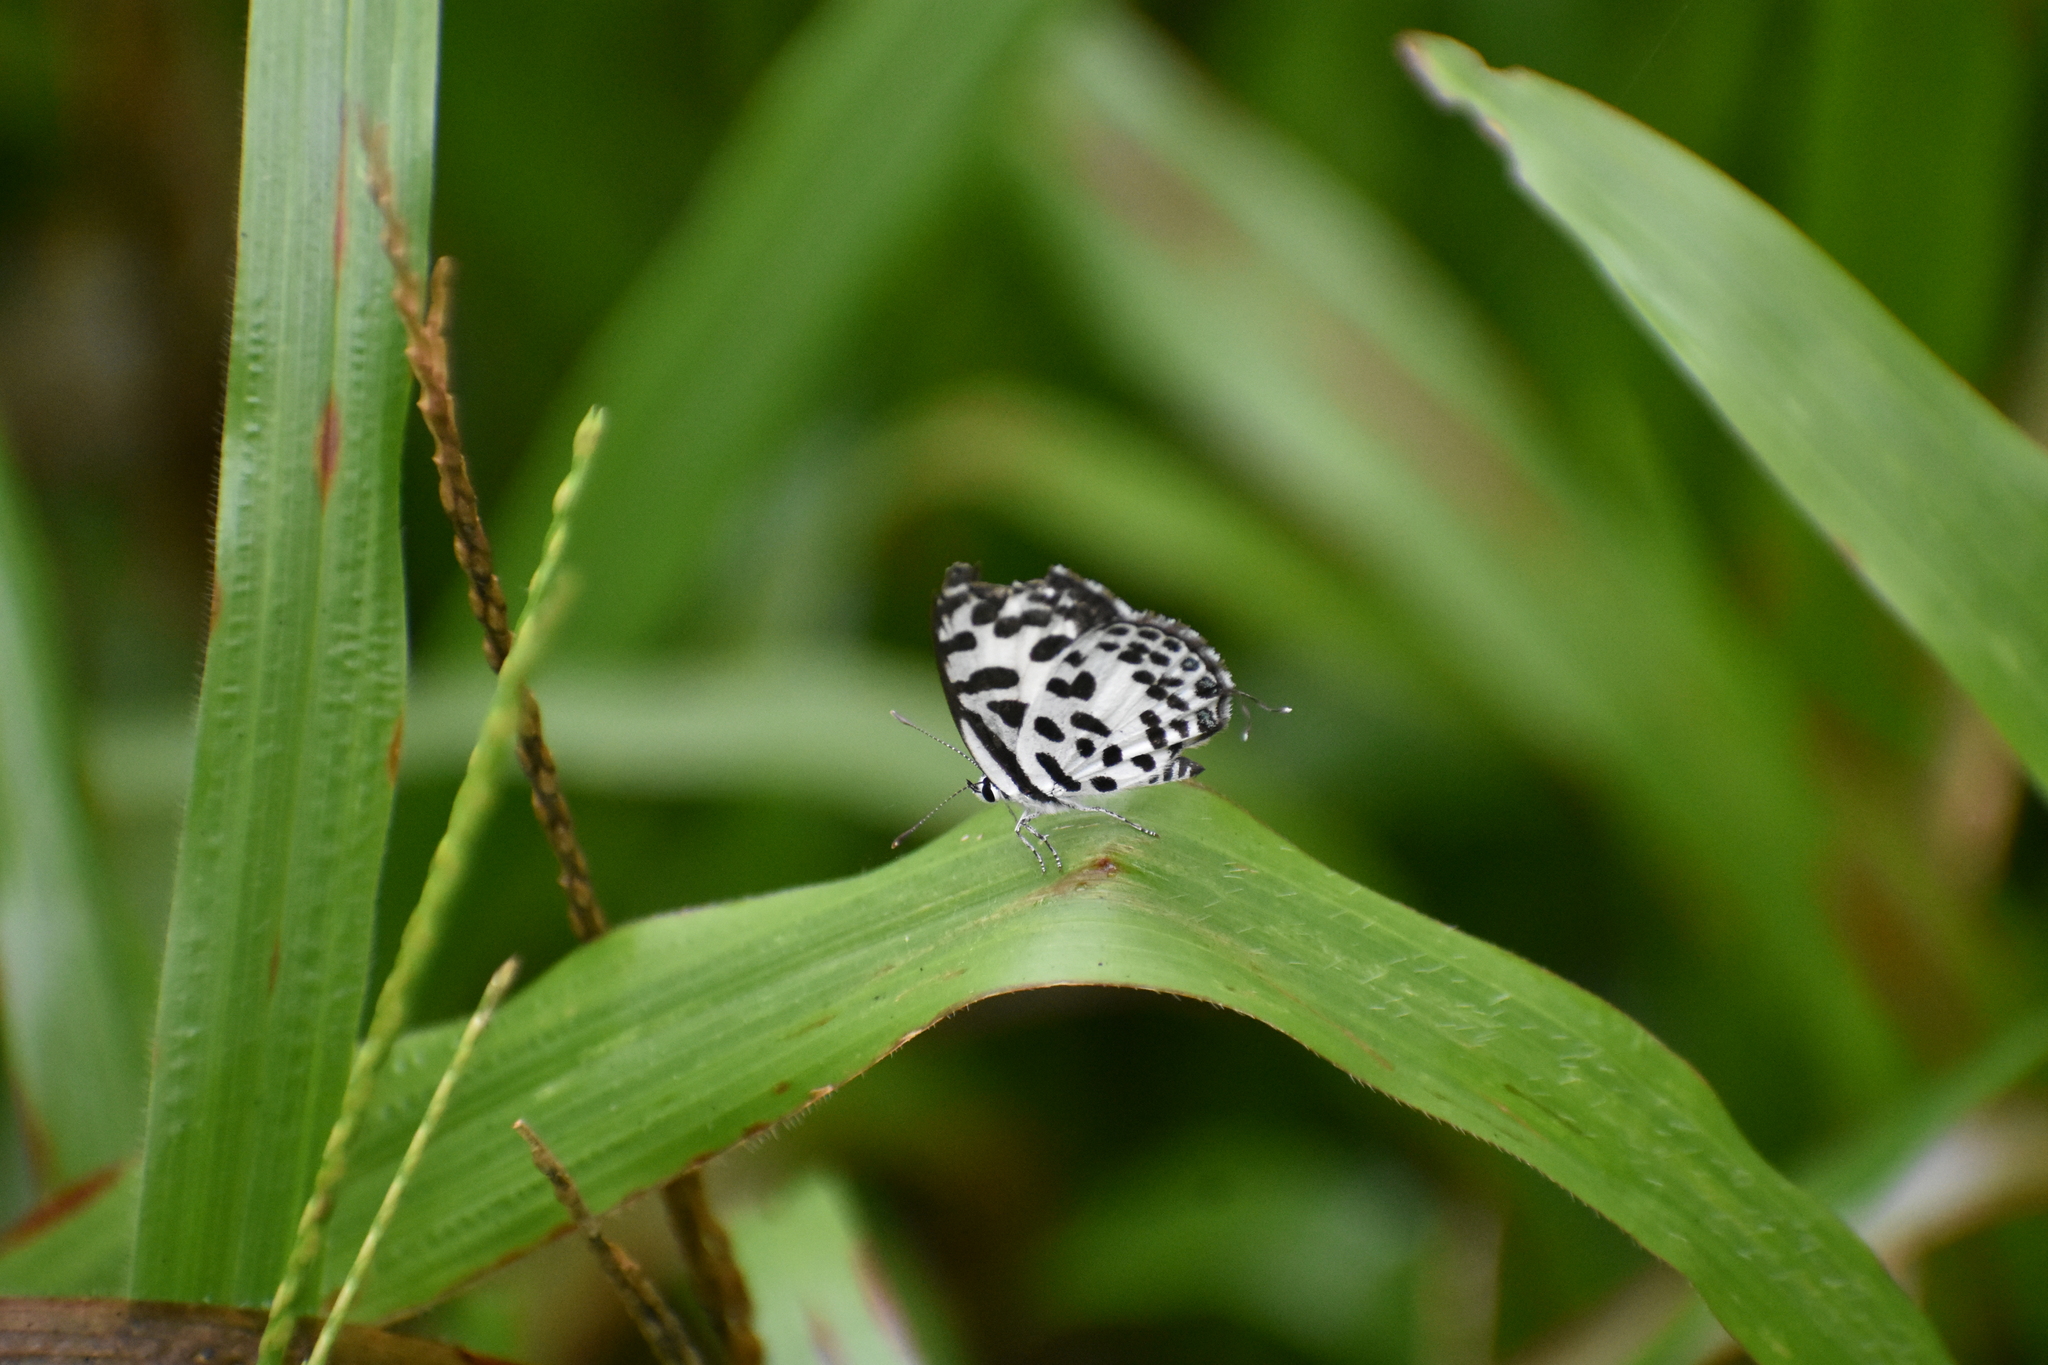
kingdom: Animalia
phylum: Arthropoda
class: Insecta
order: Lepidoptera
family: Lycaenidae
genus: Castalius
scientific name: Castalius rosimon
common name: Common pierrot
